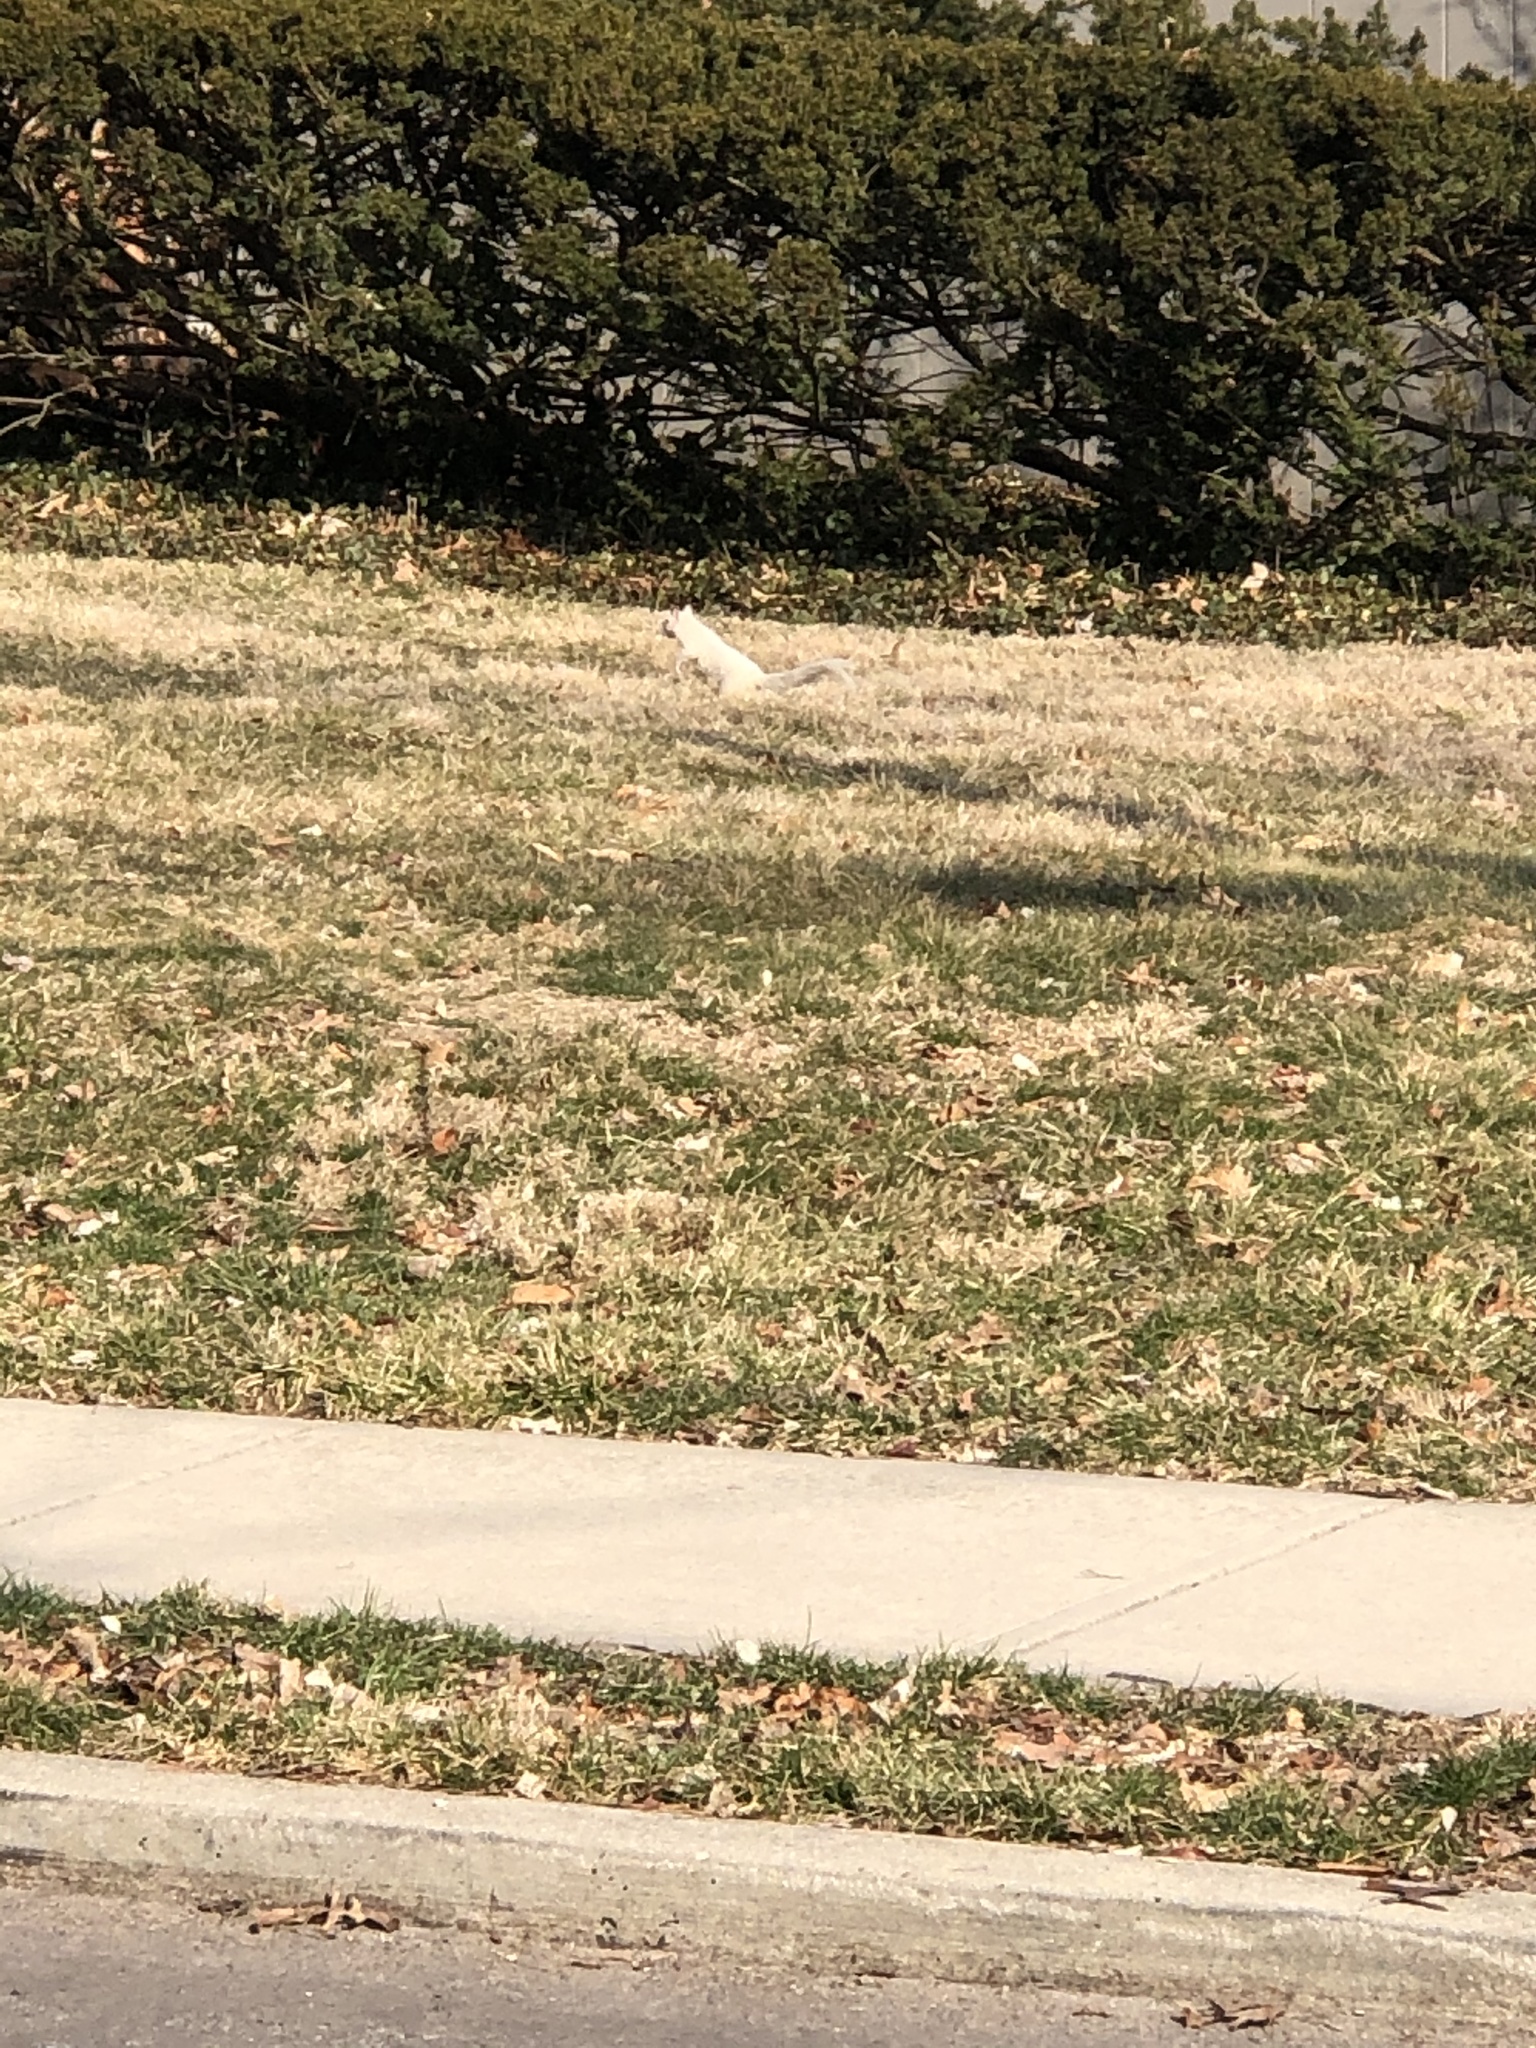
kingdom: Animalia
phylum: Chordata
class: Mammalia
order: Rodentia
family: Sciuridae
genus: Sciurus
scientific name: Sciurus carolinensis
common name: Eastern gray squirrel
